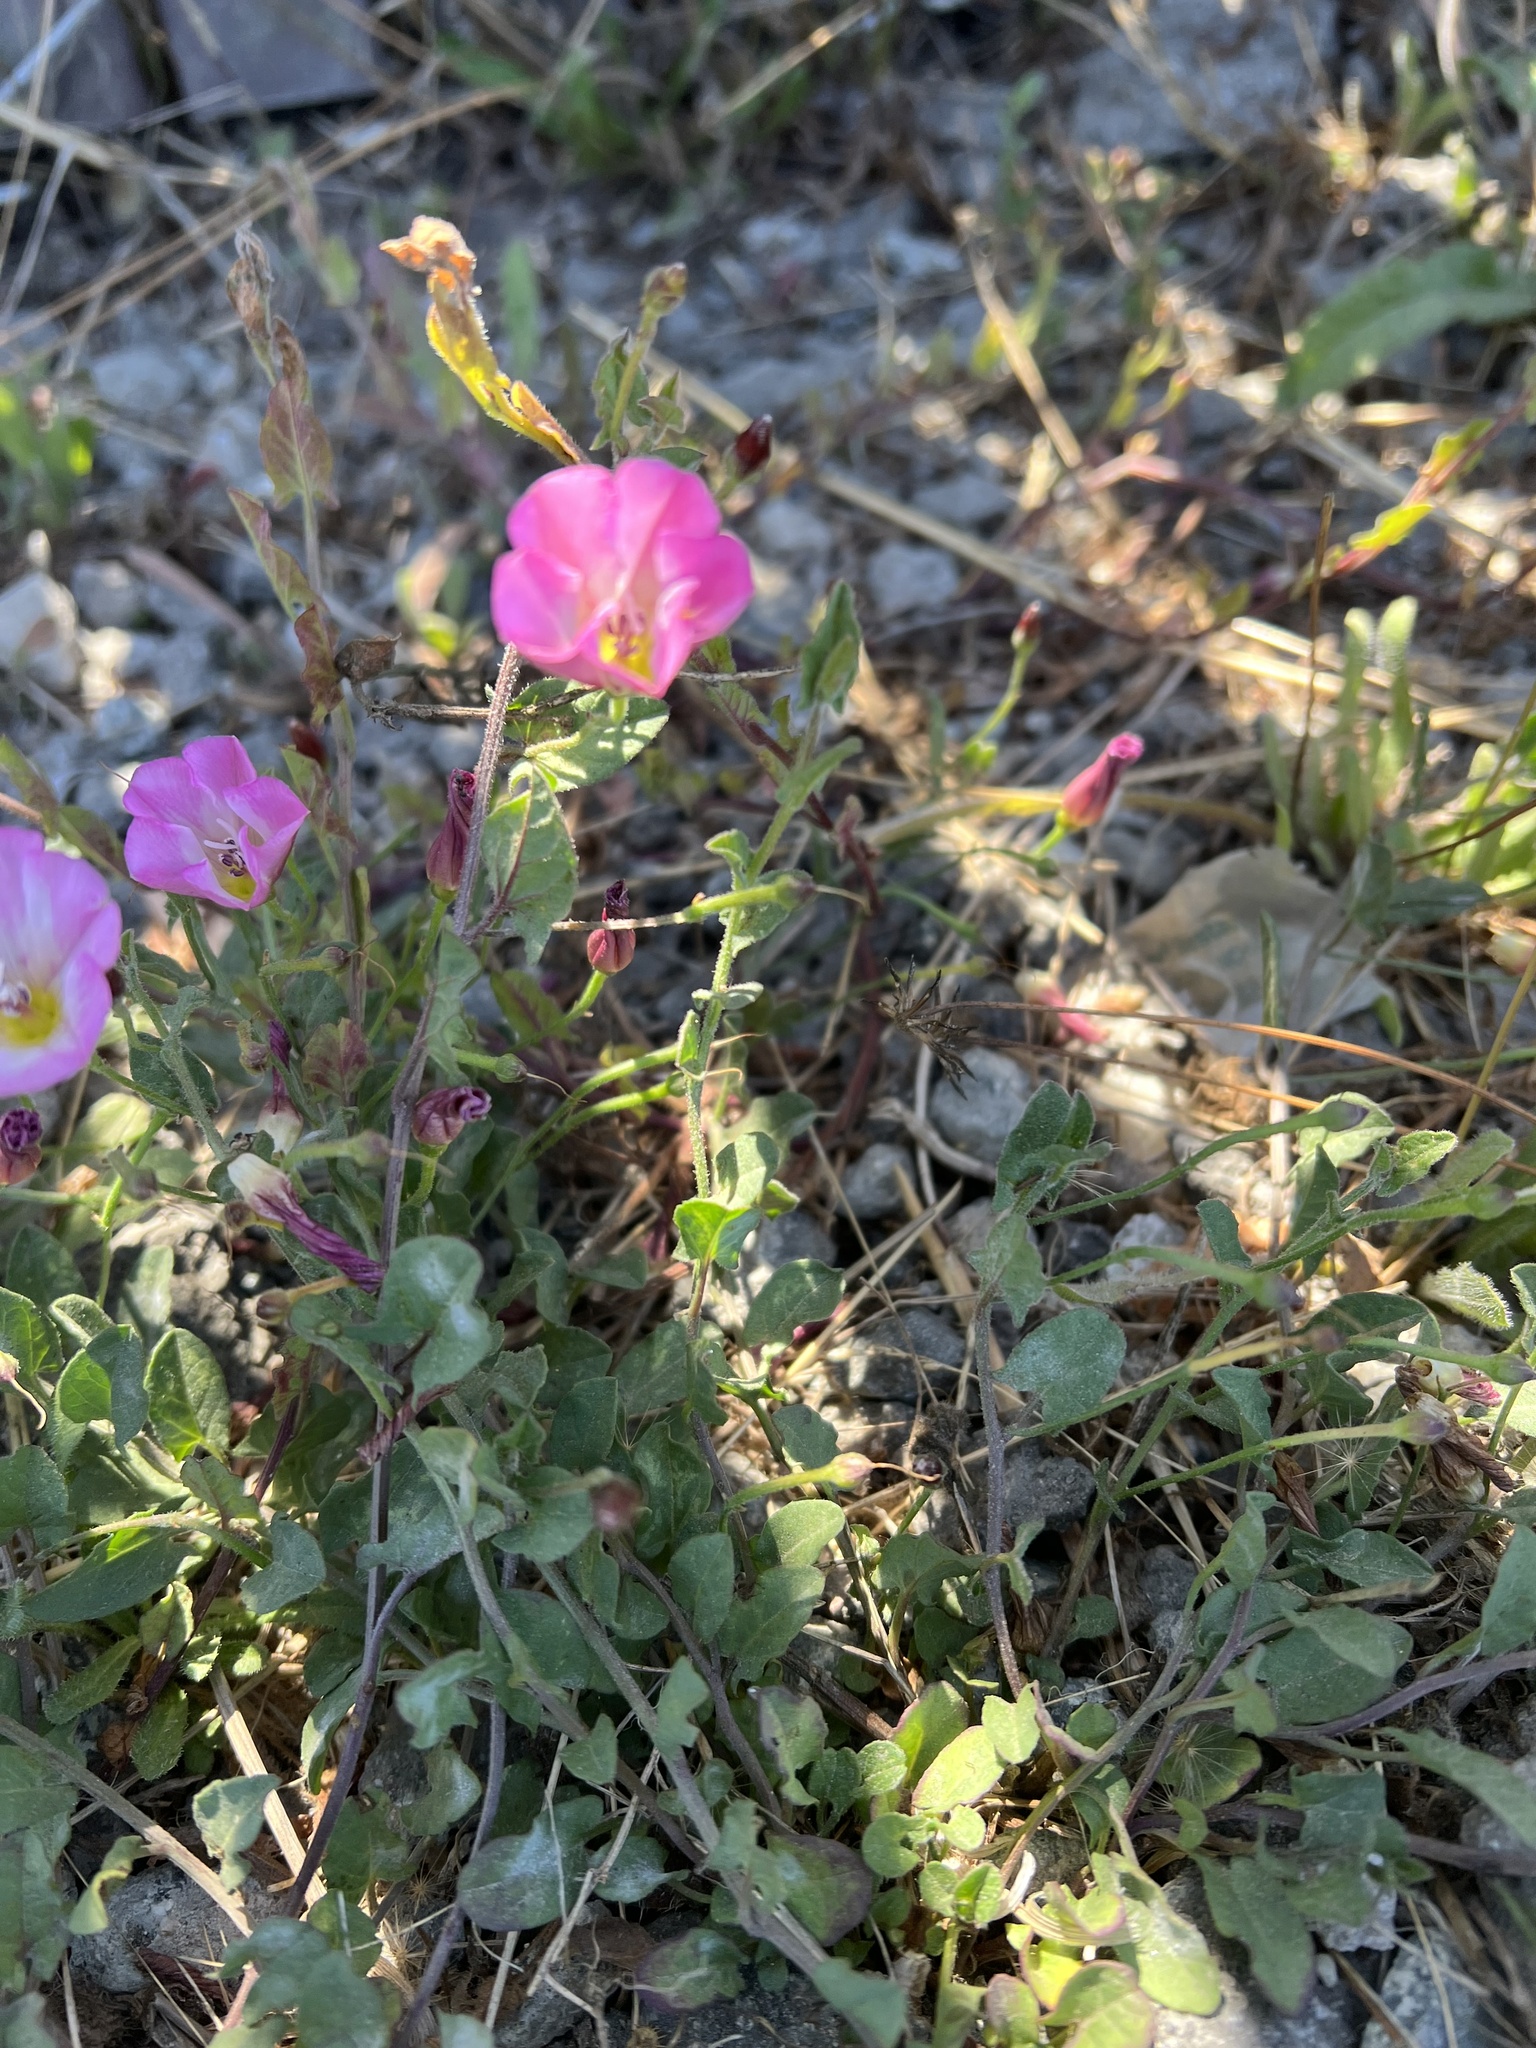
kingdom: Plantae
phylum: Tracheophyta
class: Magnoliopsida
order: Solanales
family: Convolvulaceae
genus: Convolvulus
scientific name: Convolvulus arvensis
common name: Field bindweed
